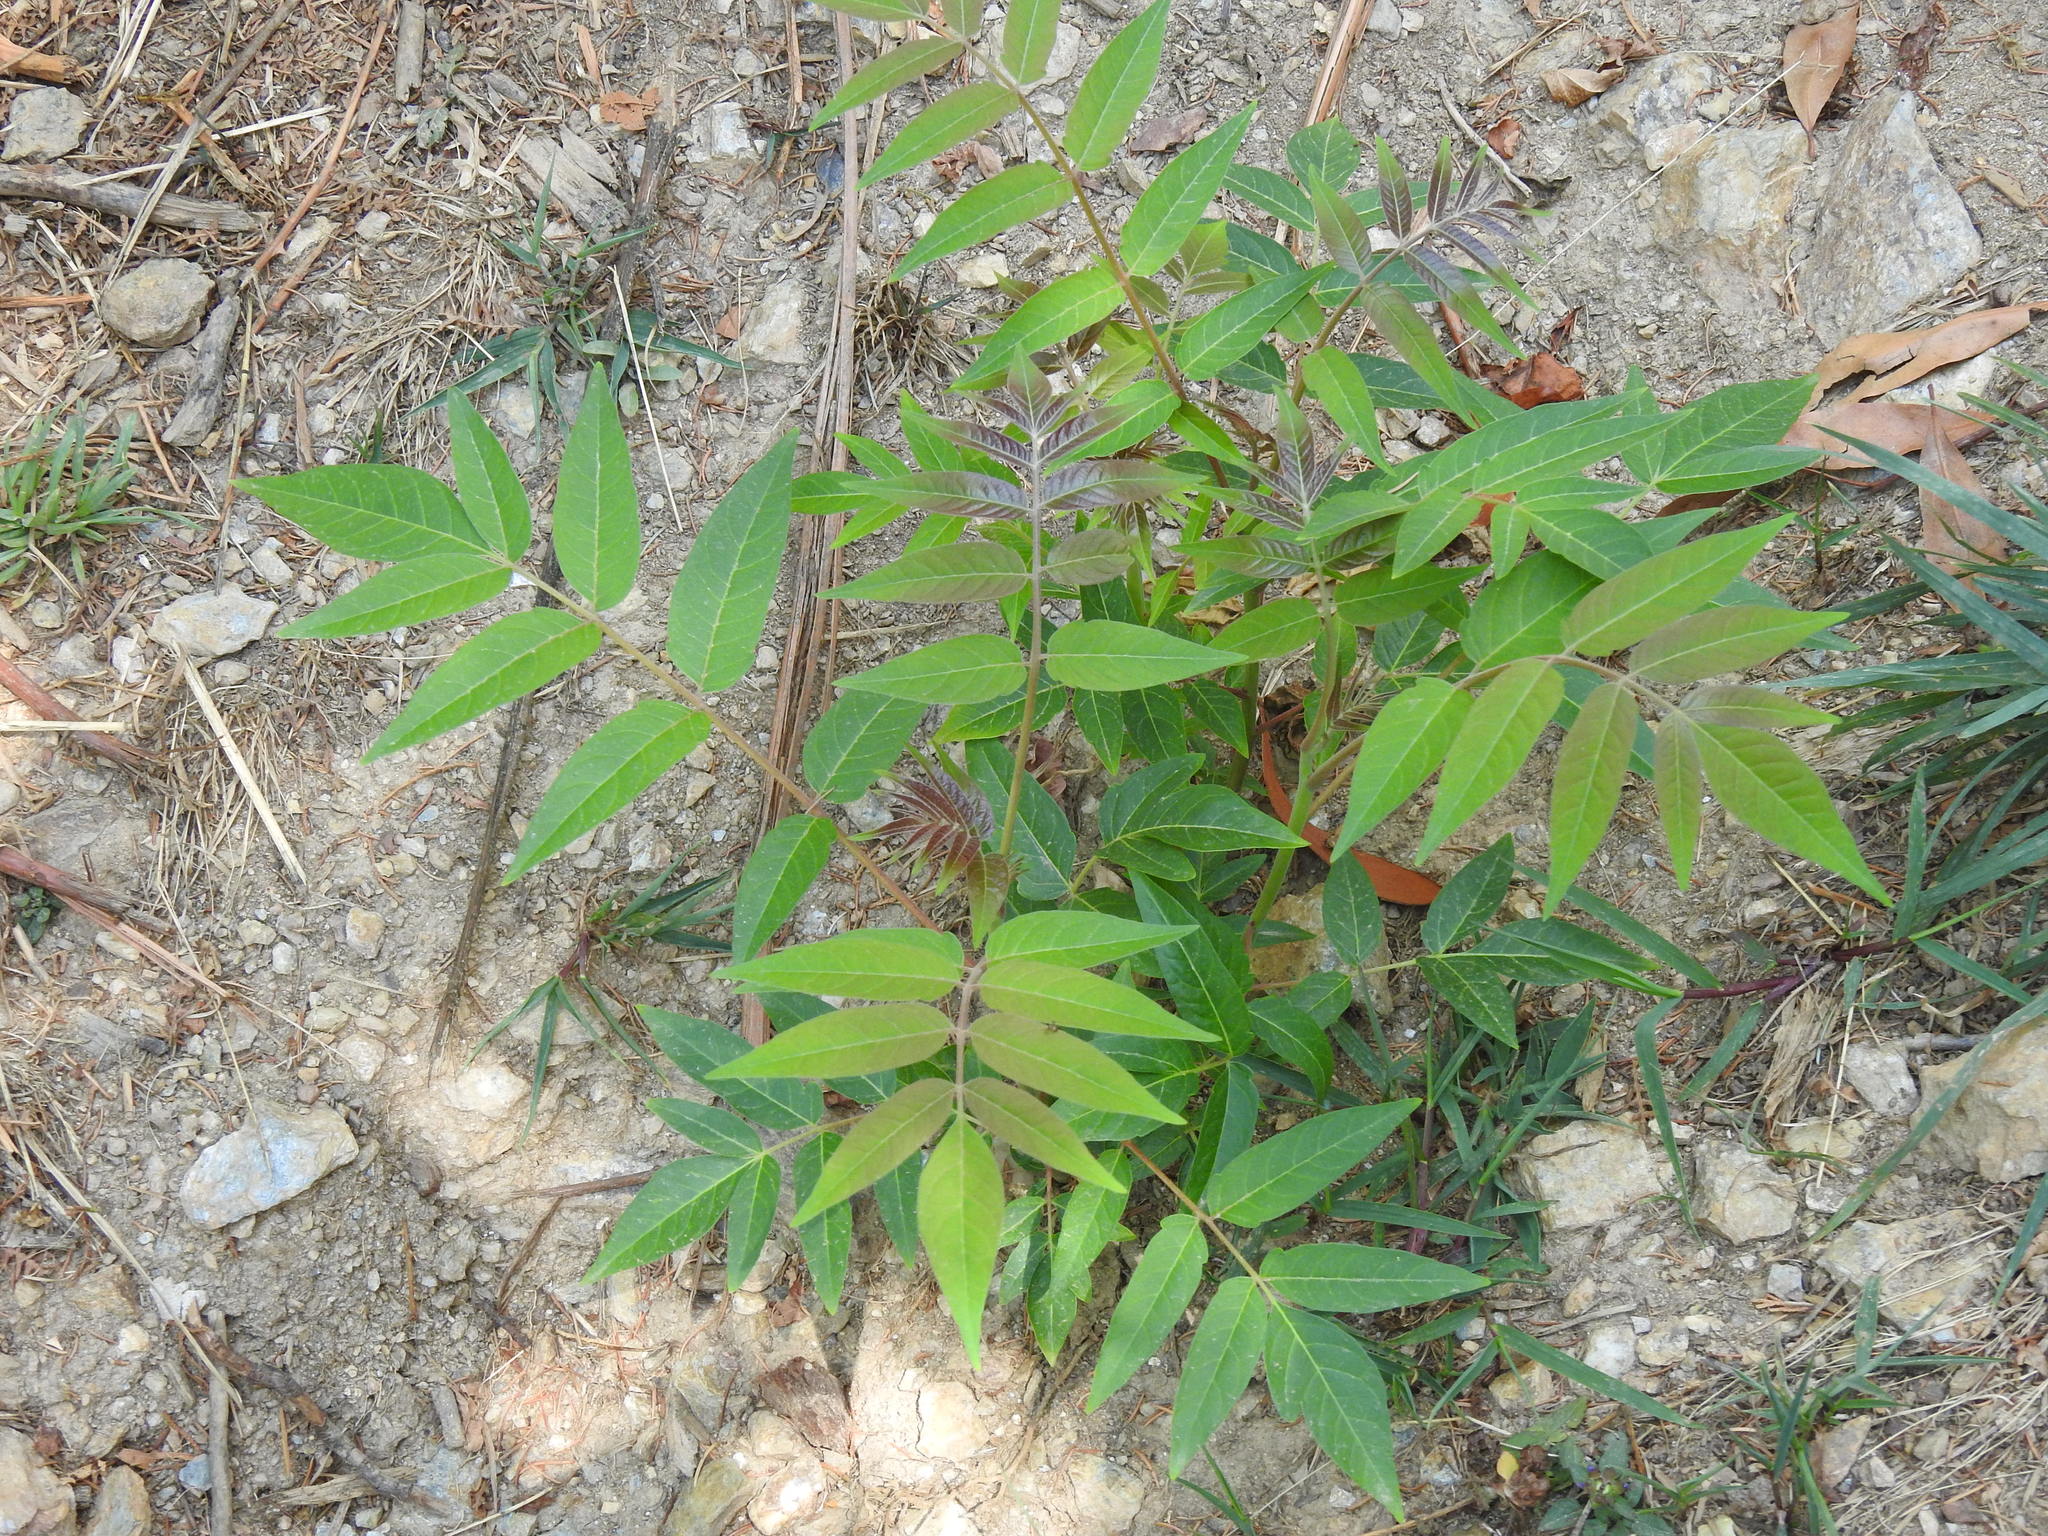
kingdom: Plantae
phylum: Tracheophyta
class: Magnoliopsida
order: Sapindales
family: Simaroubaceae
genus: Ailanthus
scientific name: Ailanthus altissima
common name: Tree-of-heaven
